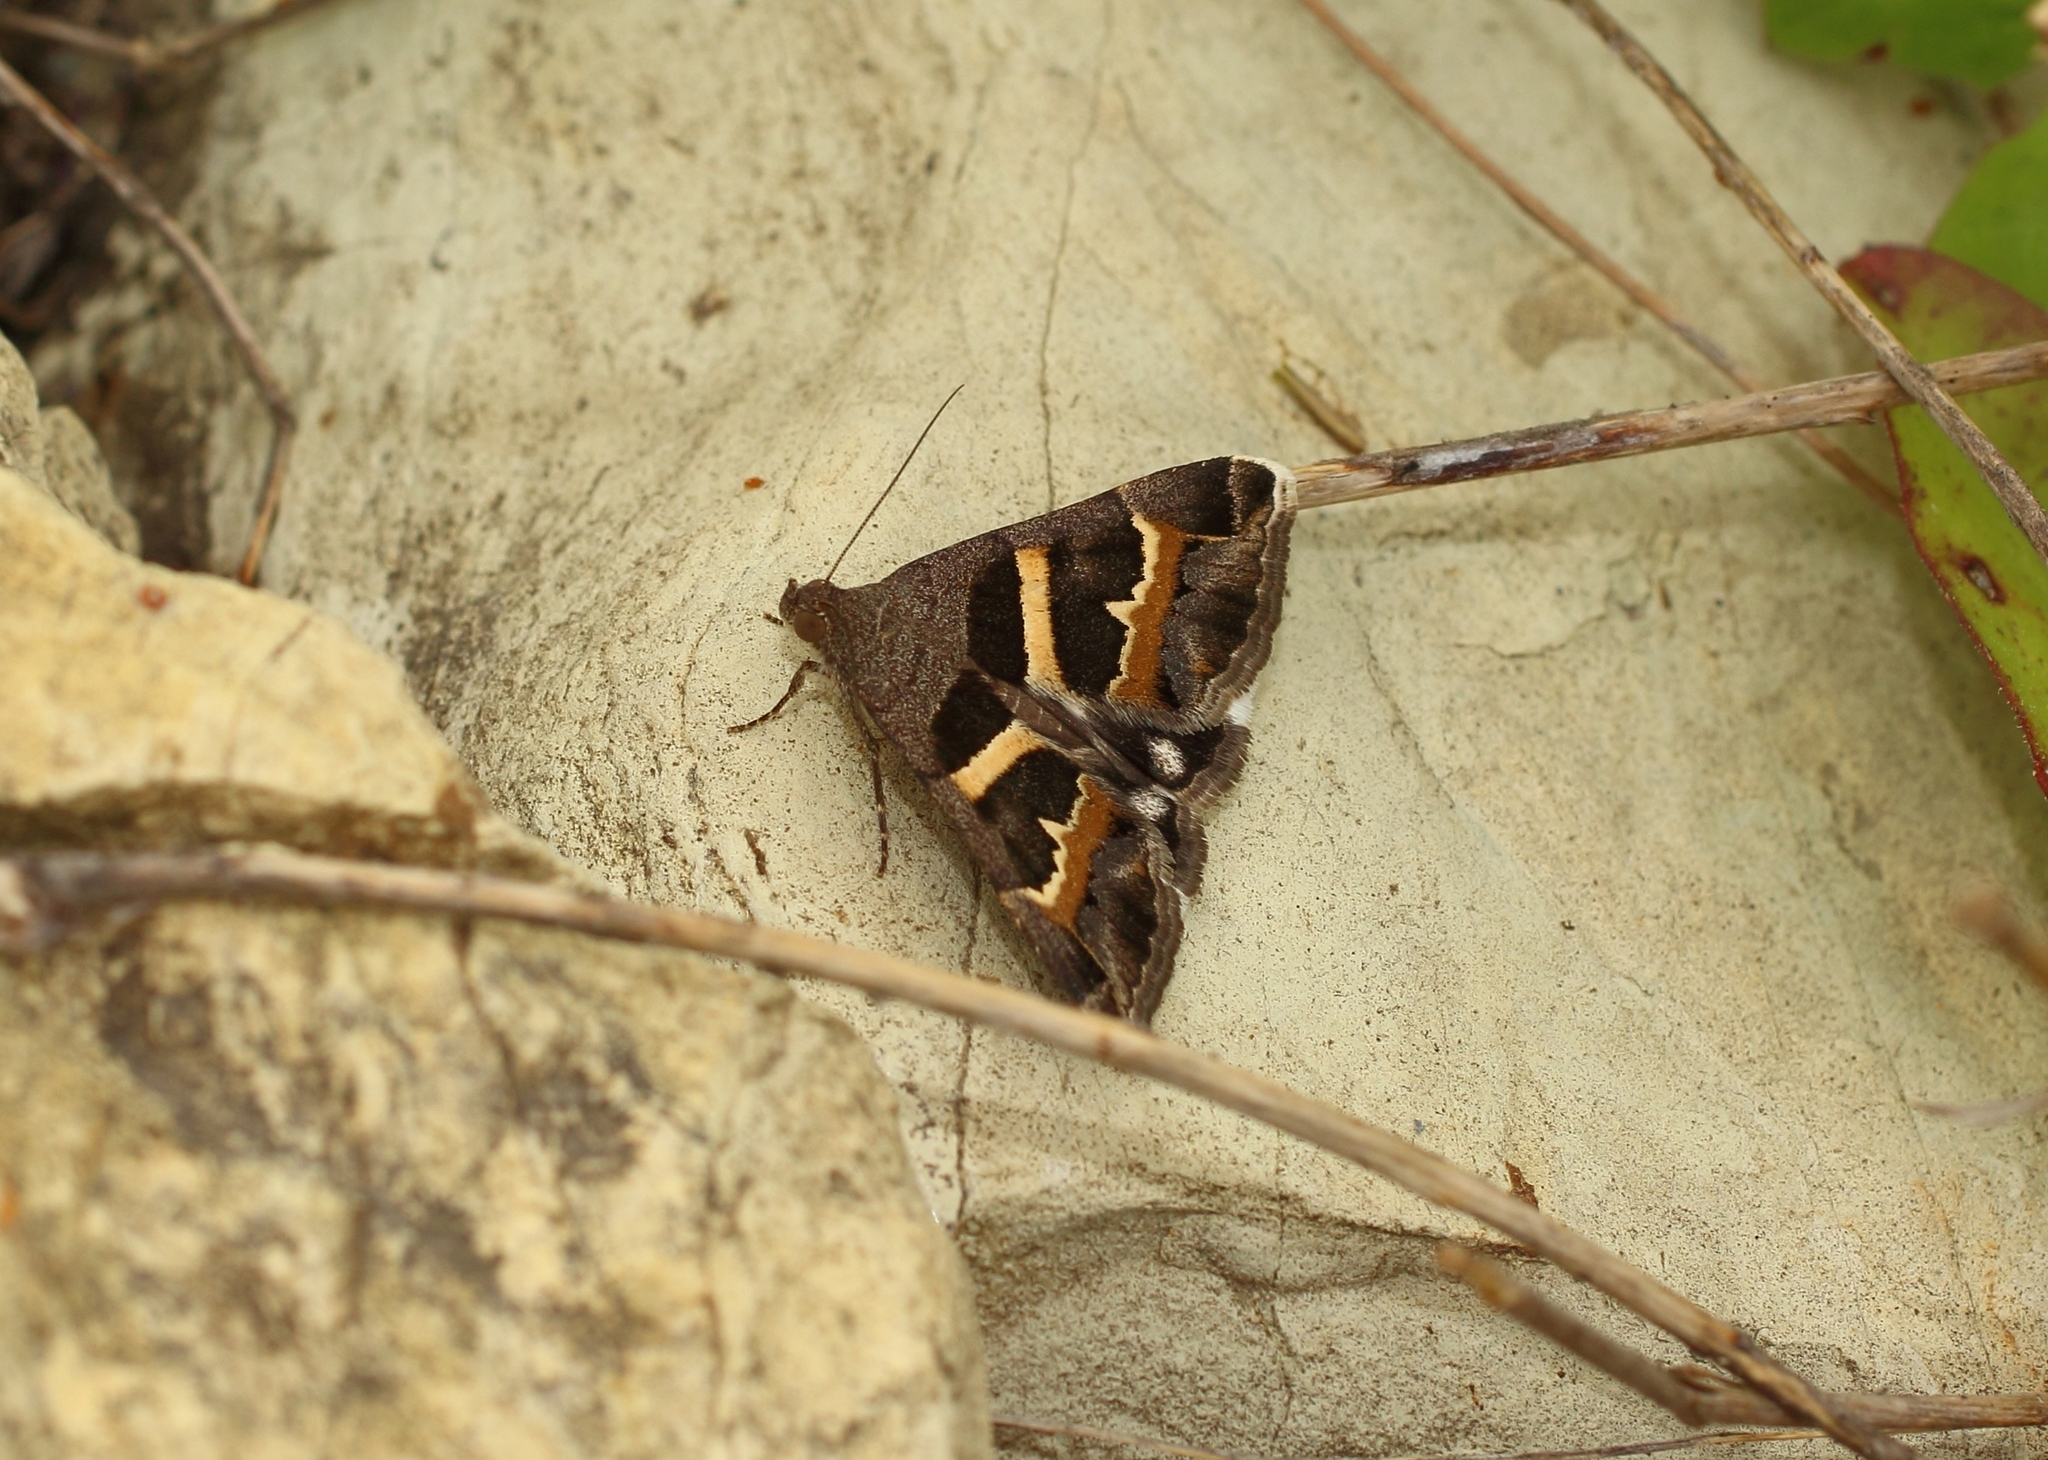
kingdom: Animalia
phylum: Arthropoda
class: Insecta
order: Lepidoptera
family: Erebidae
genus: Grammodes
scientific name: Grammodes stolida
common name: Geometrician
